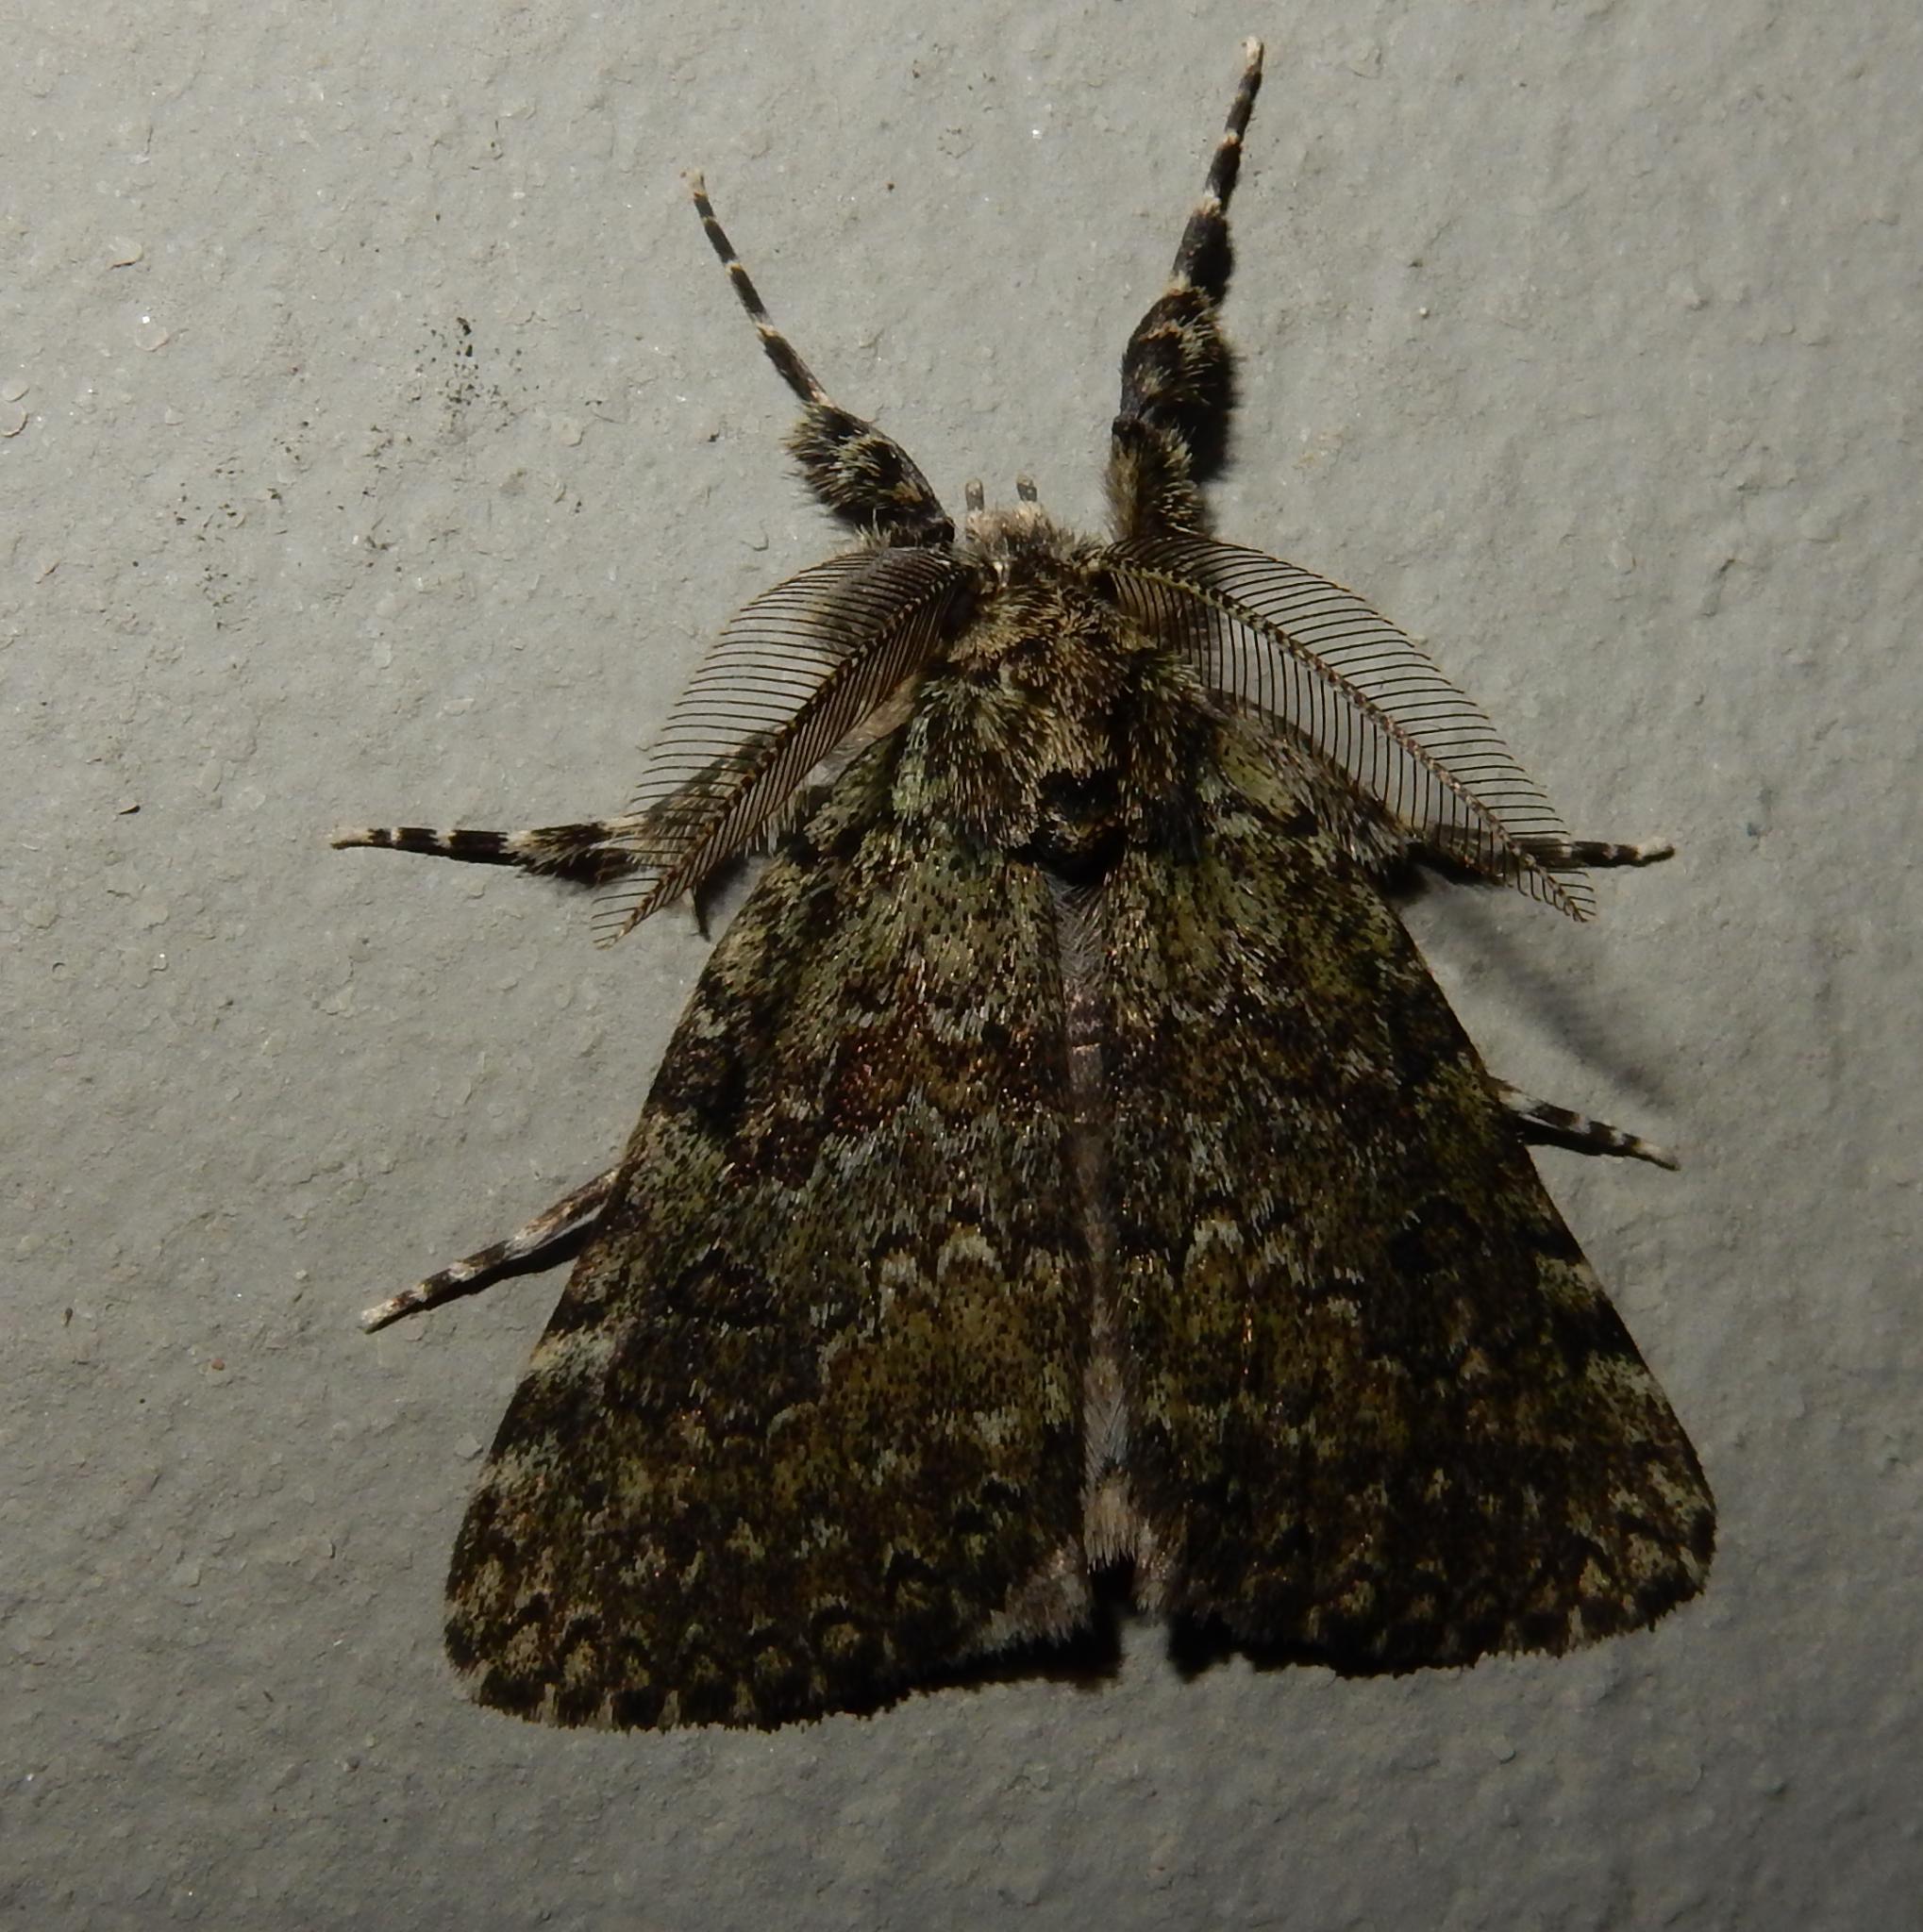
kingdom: Animalia
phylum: Arthropoda
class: Insecta
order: Lepidoptera
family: Erebidae
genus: Laelia
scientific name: Laelia fusca
